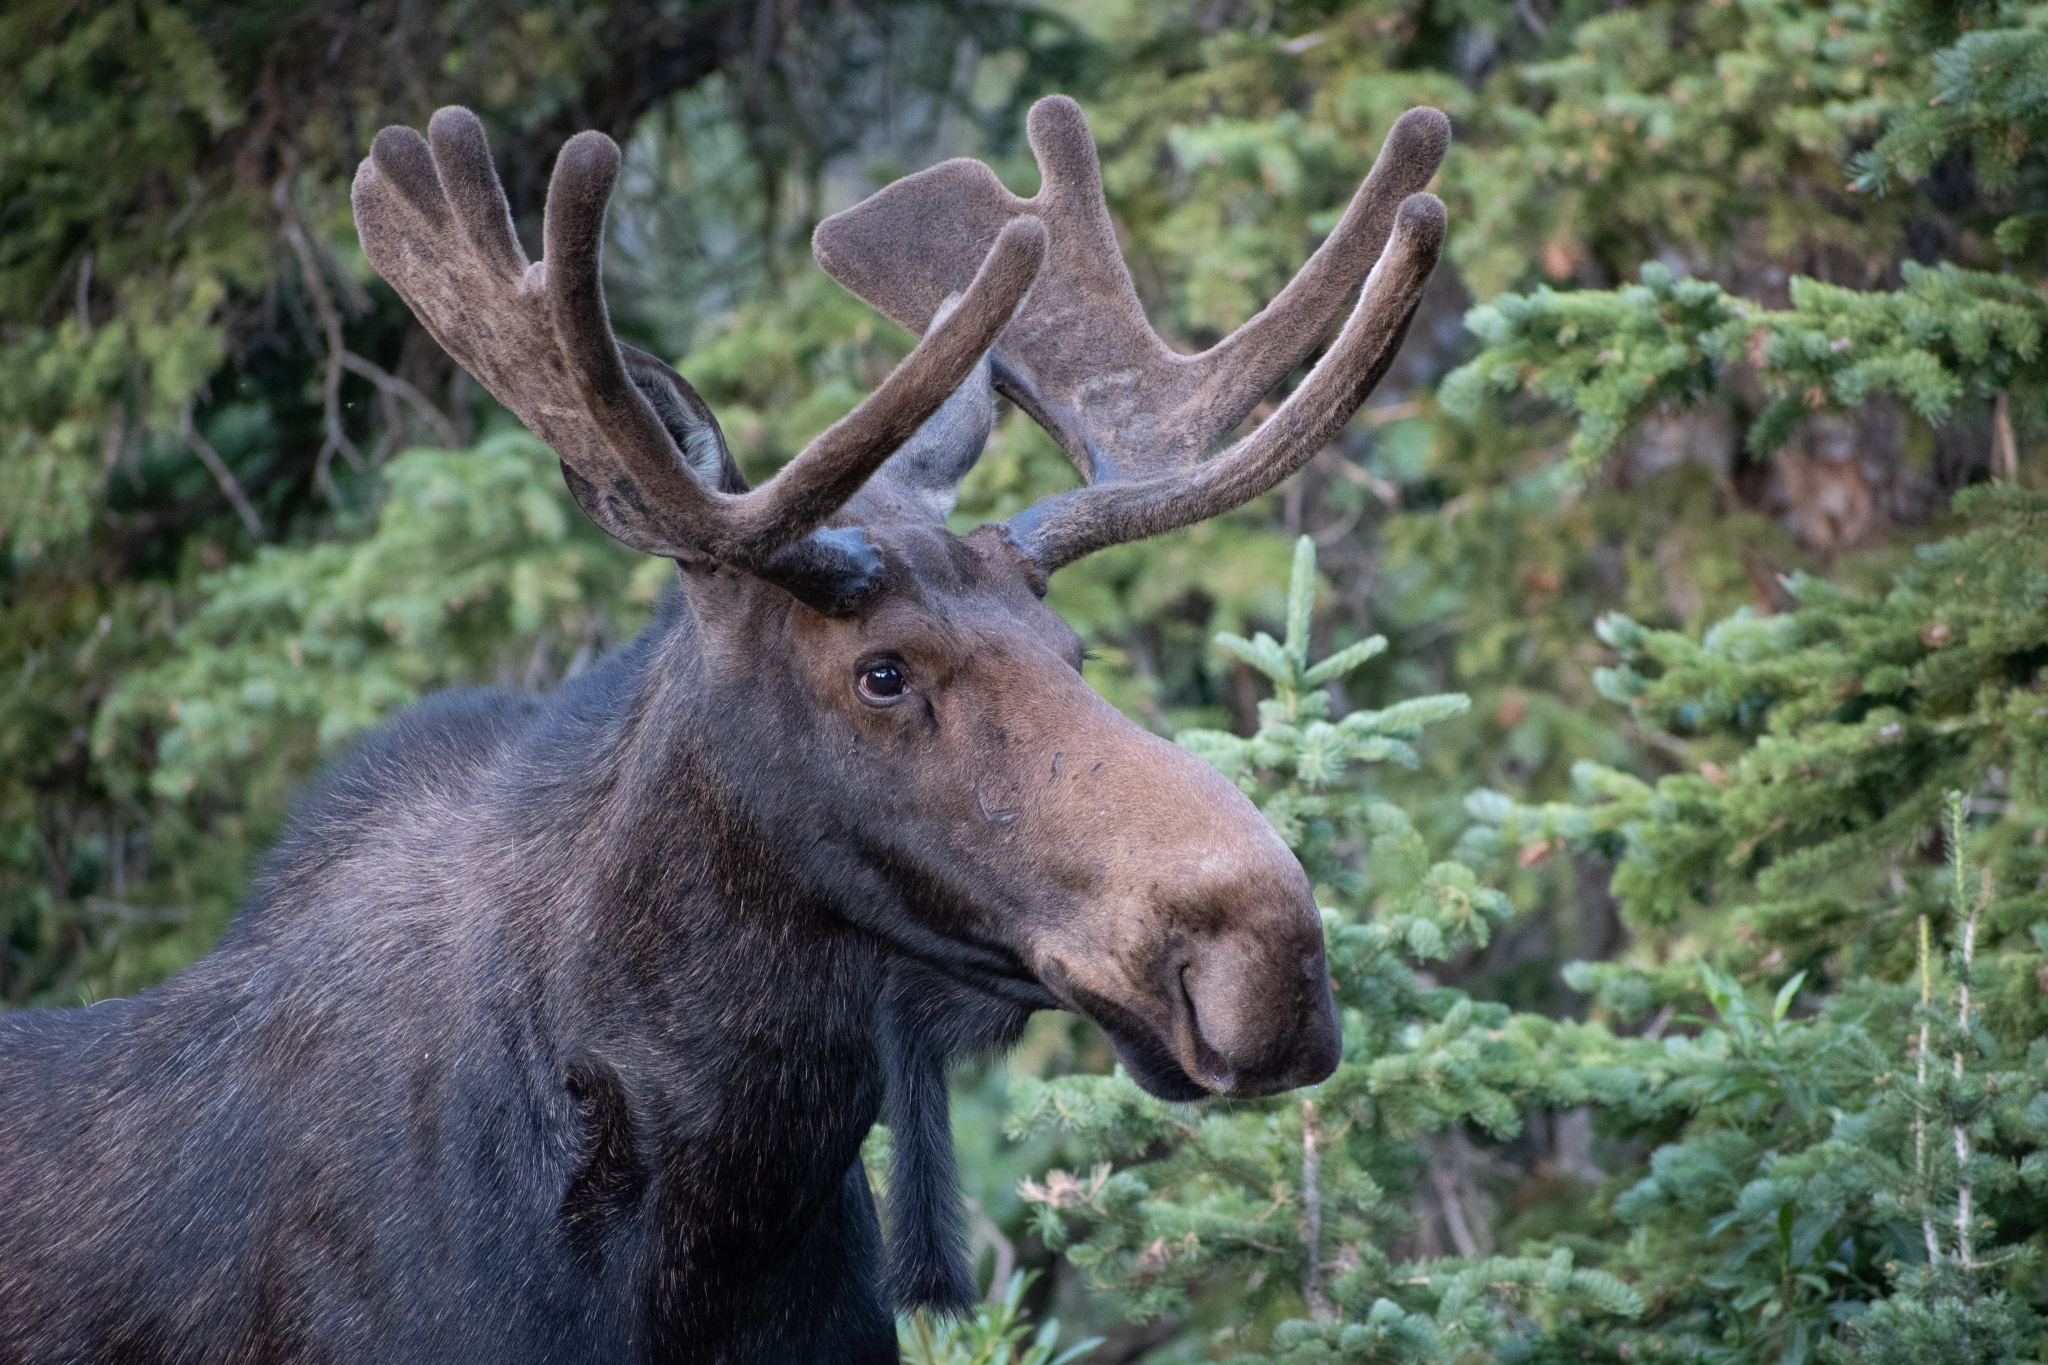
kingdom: Animalia
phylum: Chordata
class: Mammalia
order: Artiodactyla
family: Cervidae
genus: Alces
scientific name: Alces alces
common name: Moose
